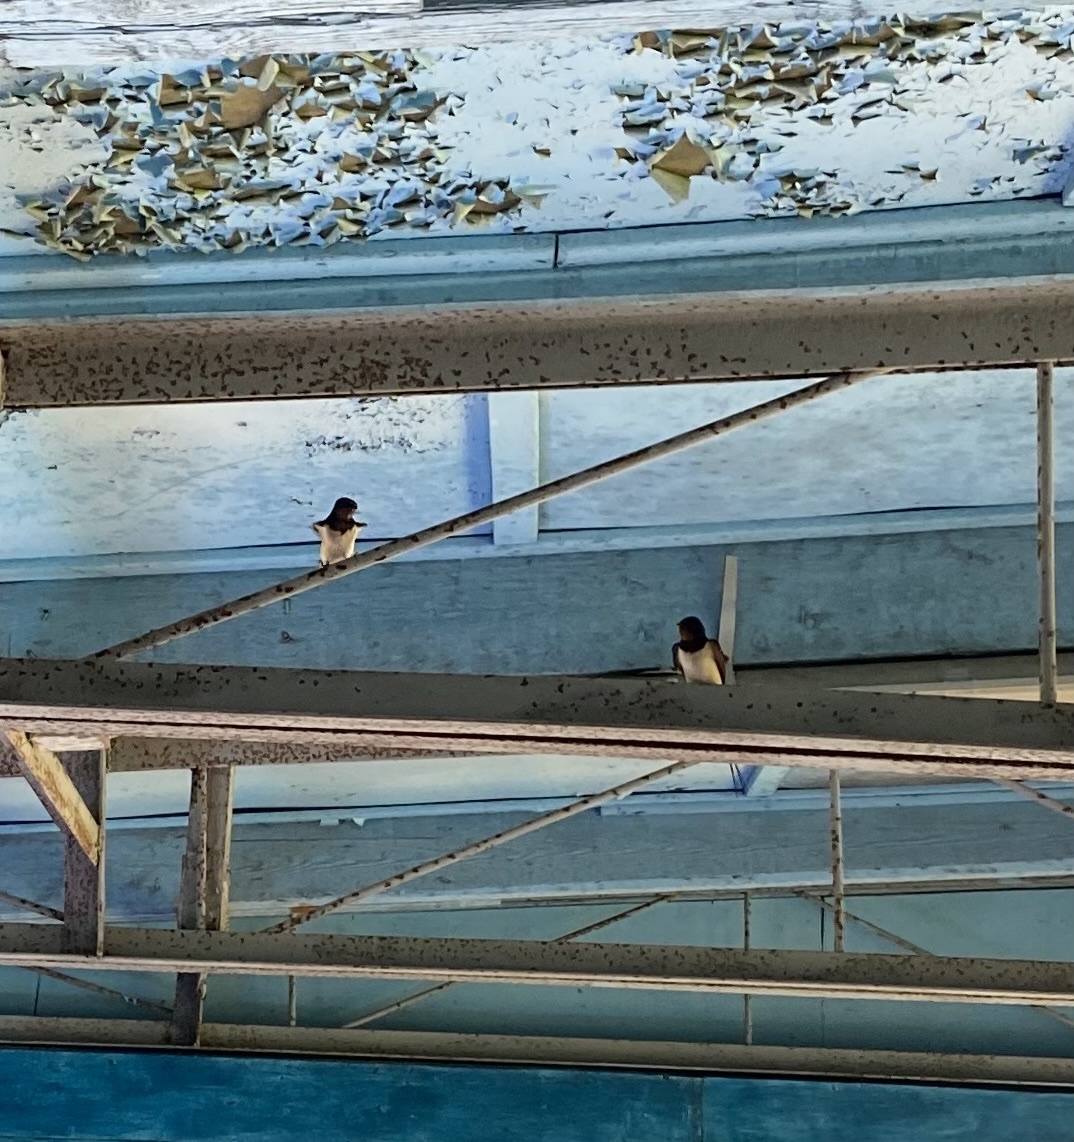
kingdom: Animalia
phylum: Chordata
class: Aves
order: Passeriformes
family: Hirundinidae
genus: Hirundo
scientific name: Hirundo rustica
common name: Barn swallow
